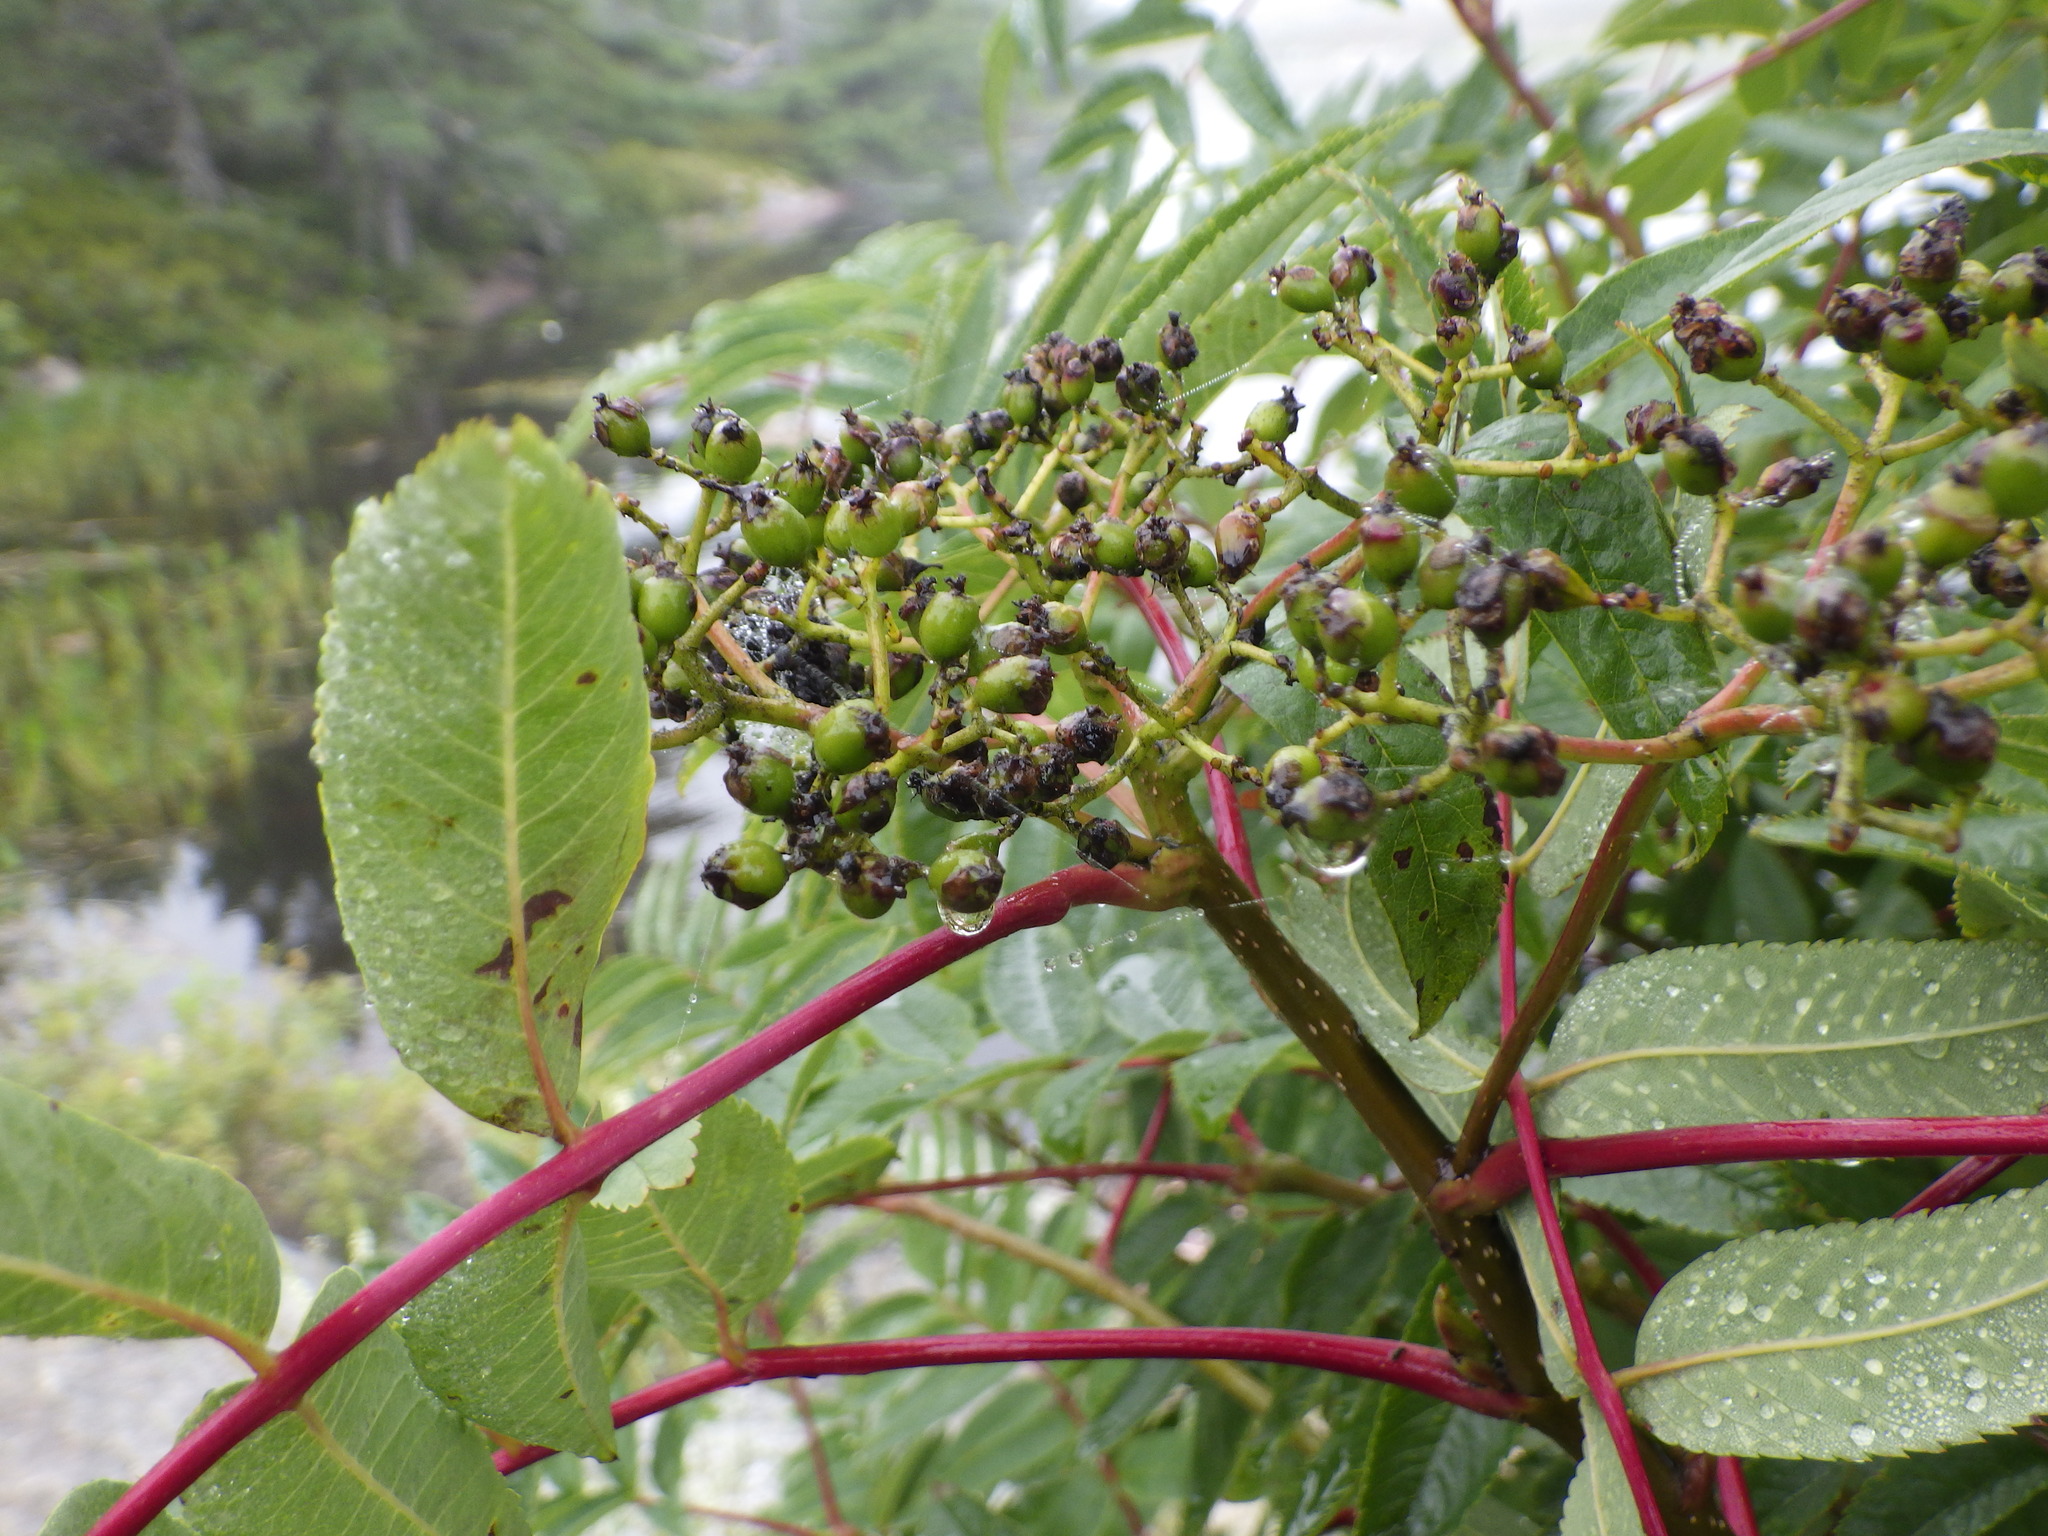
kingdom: Plantae
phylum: Tracheophyta
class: Magnoliopsida
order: Rosales
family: Rosaceae
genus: Sorbus
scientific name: Sorbus americana
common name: American mountain-ash
